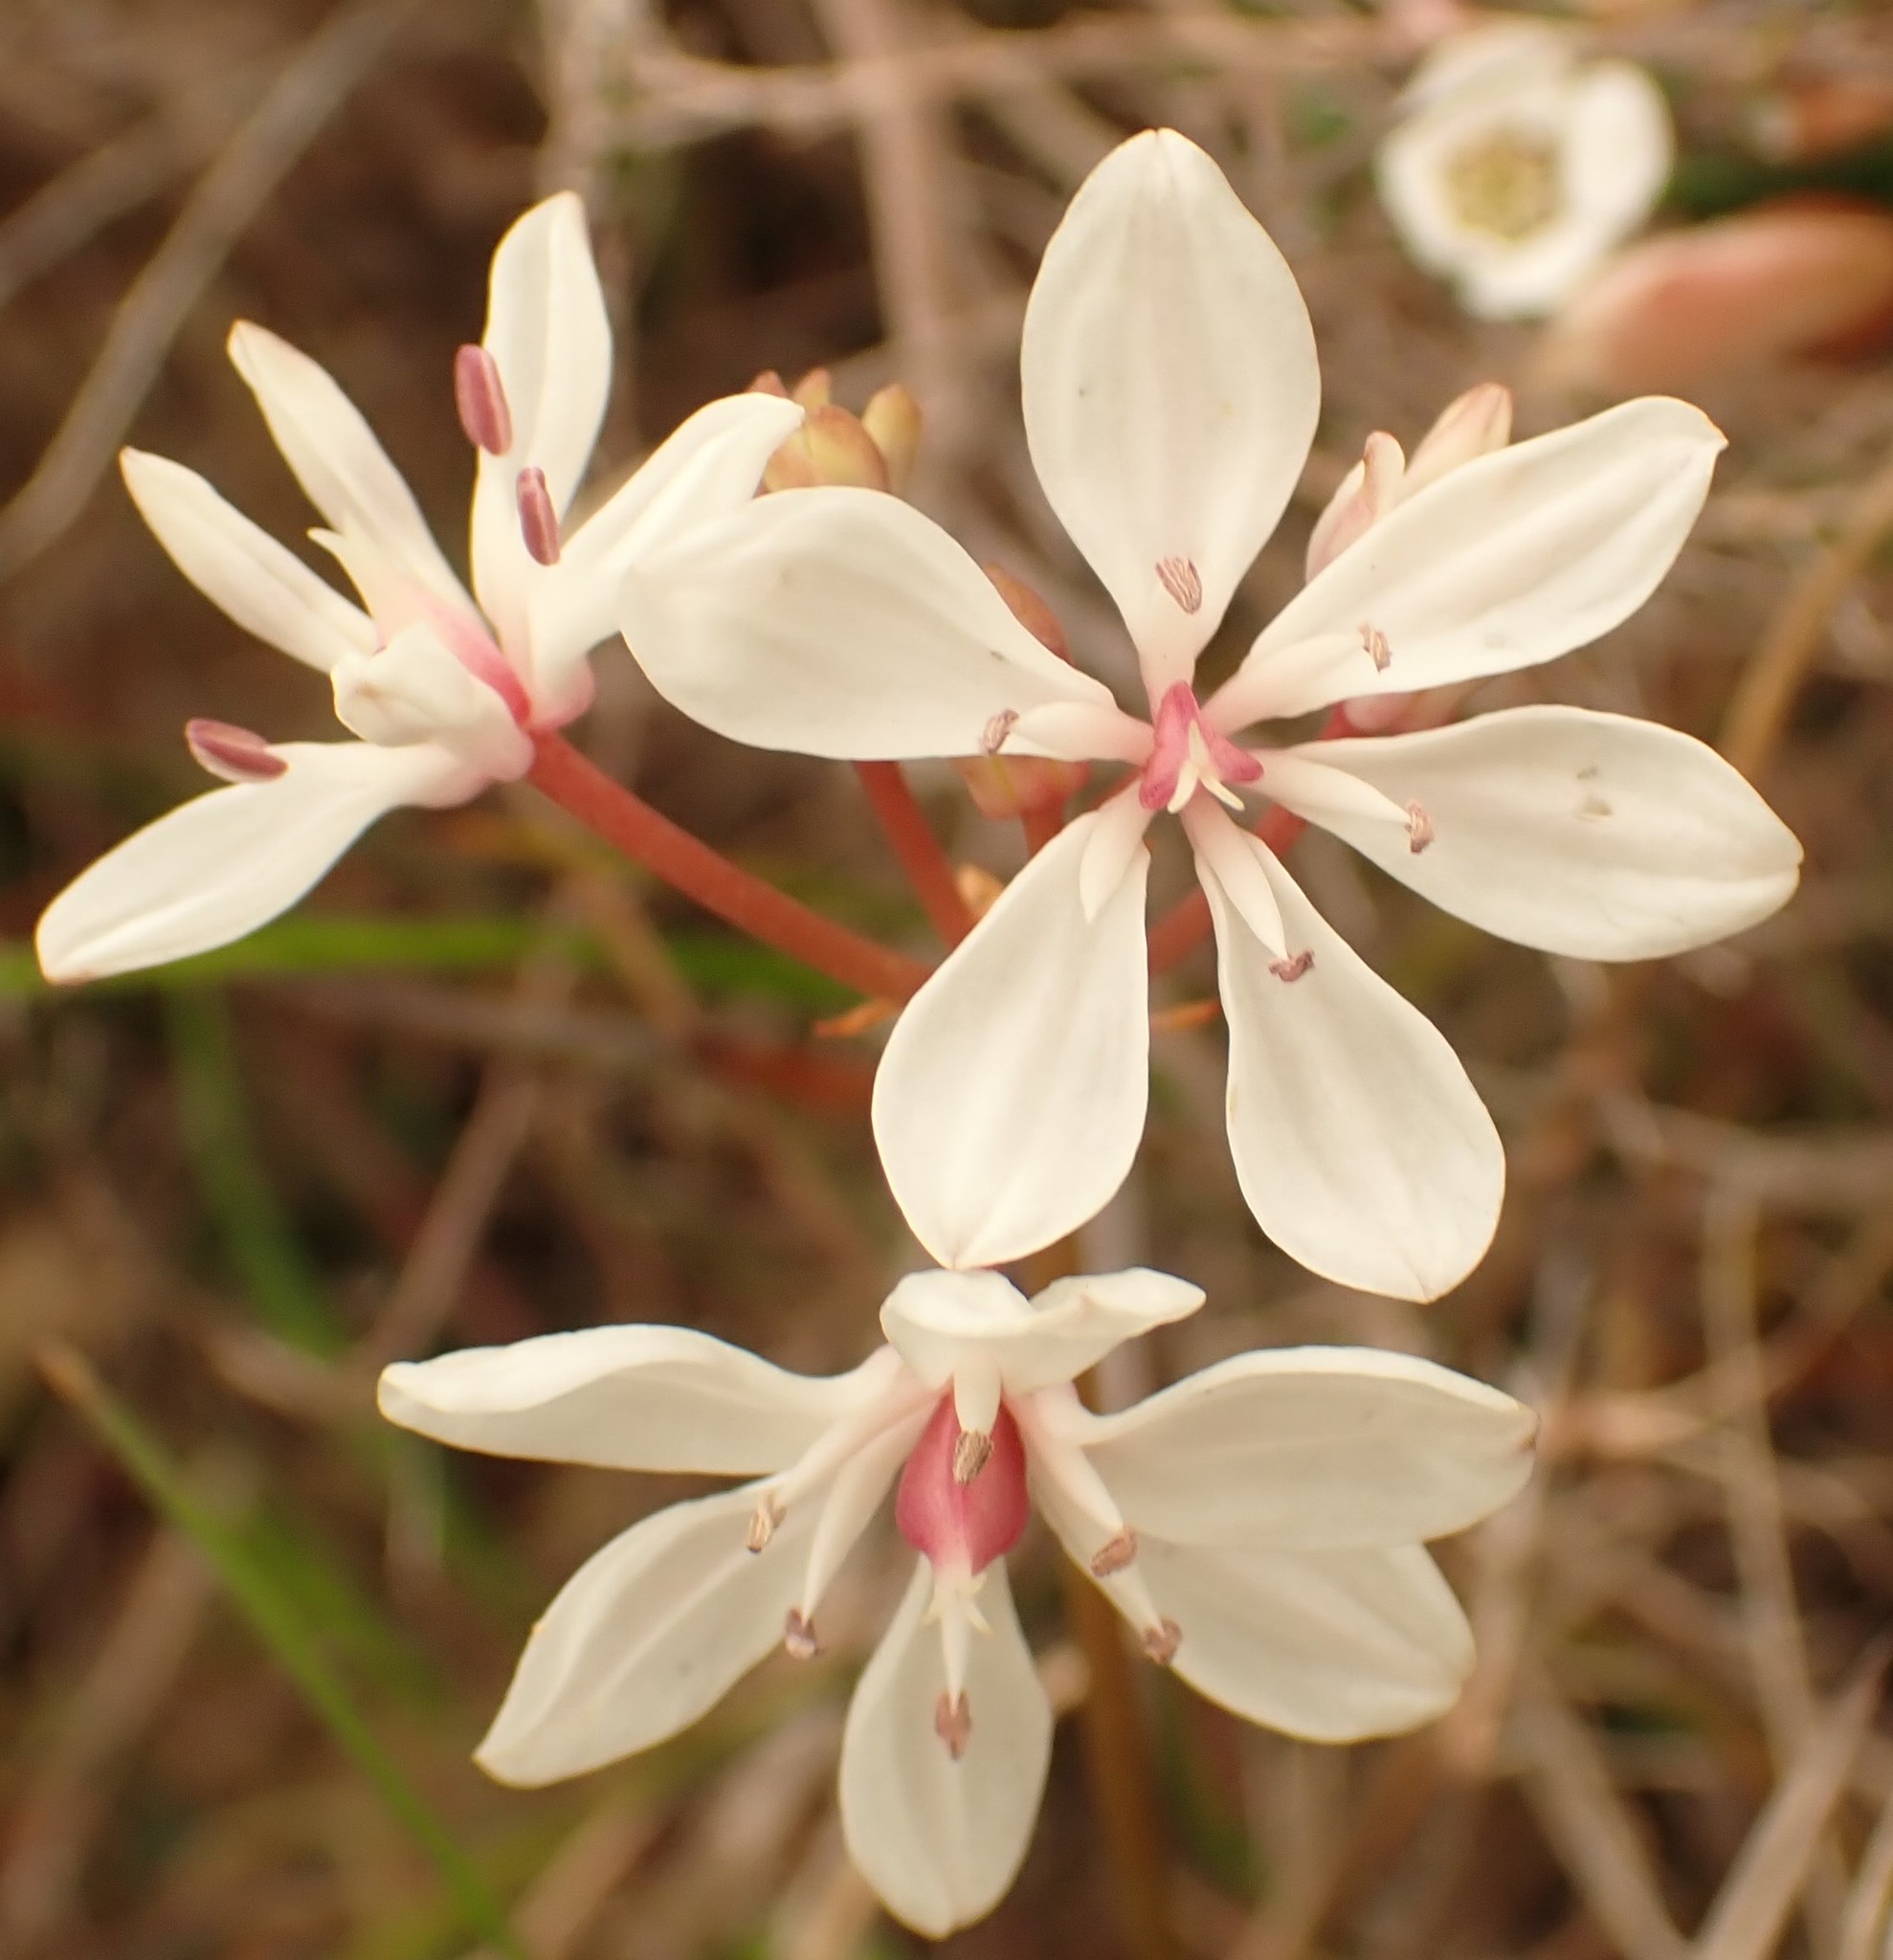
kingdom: Plantae
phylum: Tracheophyta
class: Liliopsida
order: Liliales
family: Colchicaceae
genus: Burchardia
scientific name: Burchardia umbellata
